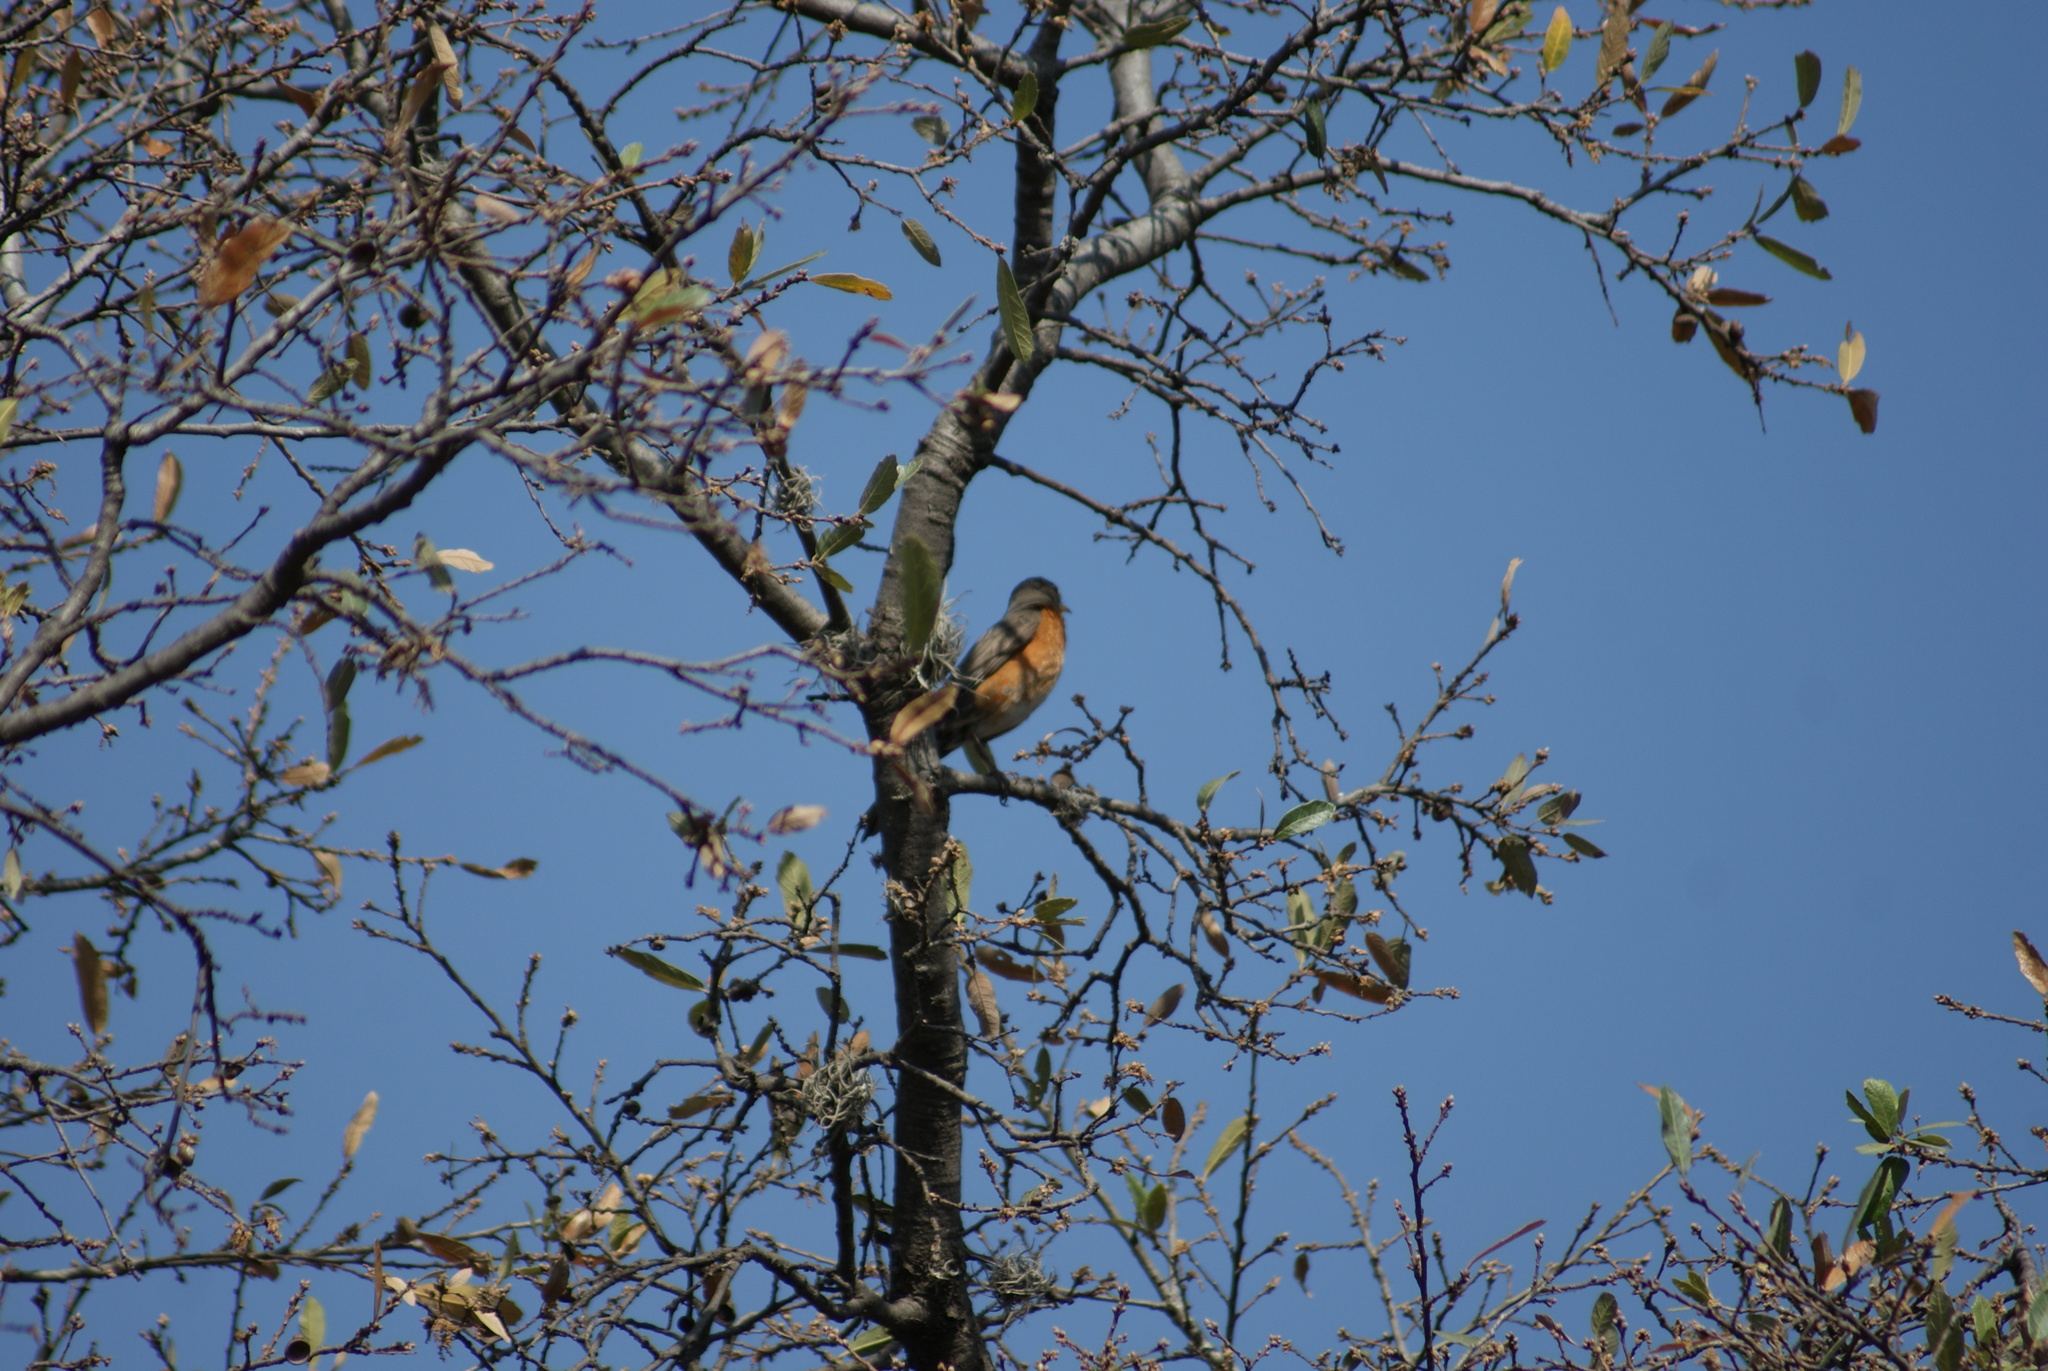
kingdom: Animalia
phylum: Chordata
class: Aves
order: Passeriformes
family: Turdidae
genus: Turdus
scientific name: Turdus migratorius
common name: American robin
